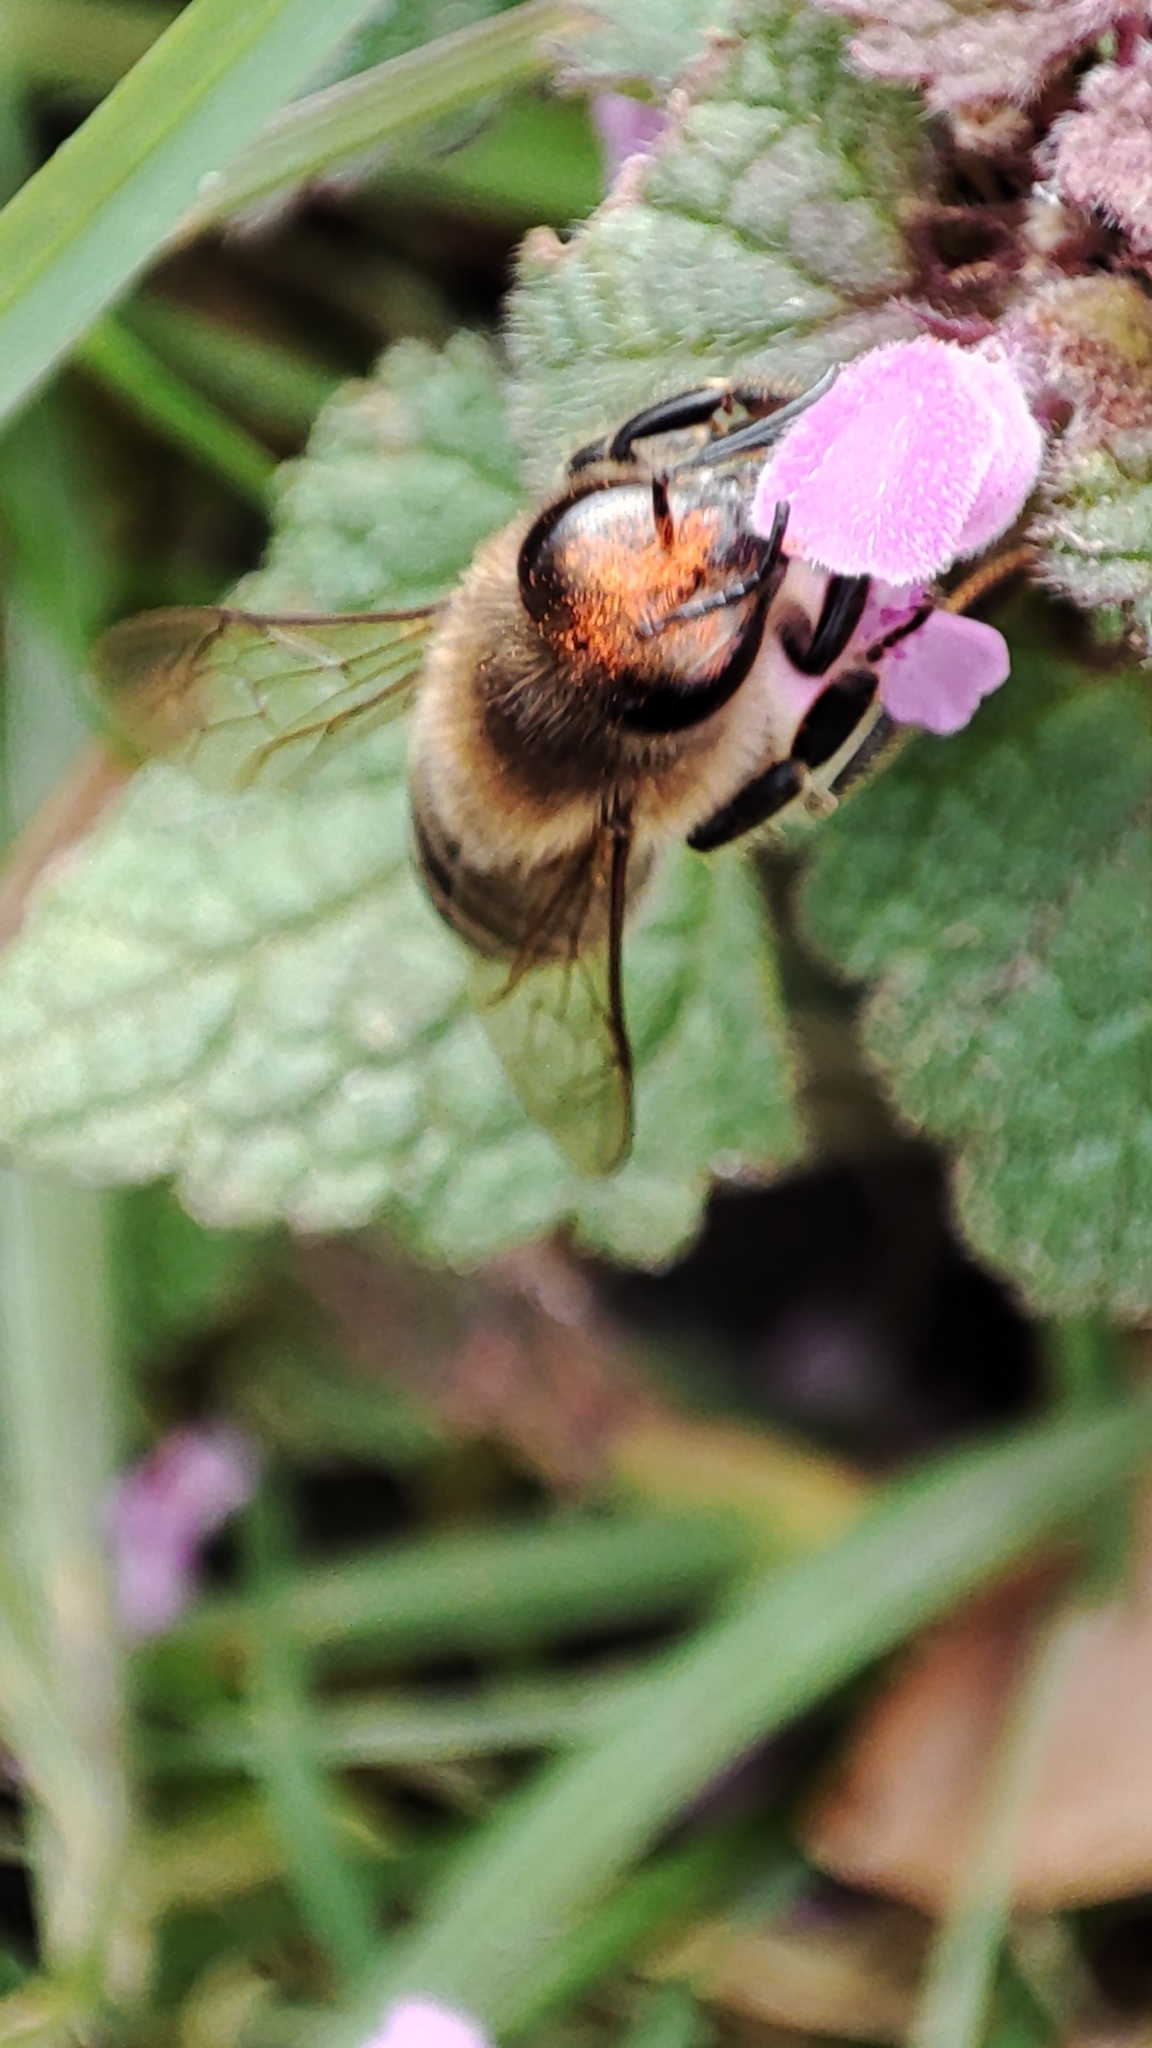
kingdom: Animalia
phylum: Arthropoda
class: Insecta
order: Hymenoptera
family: Apidae
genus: Apis
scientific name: Apis mellifera
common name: Honey bee
